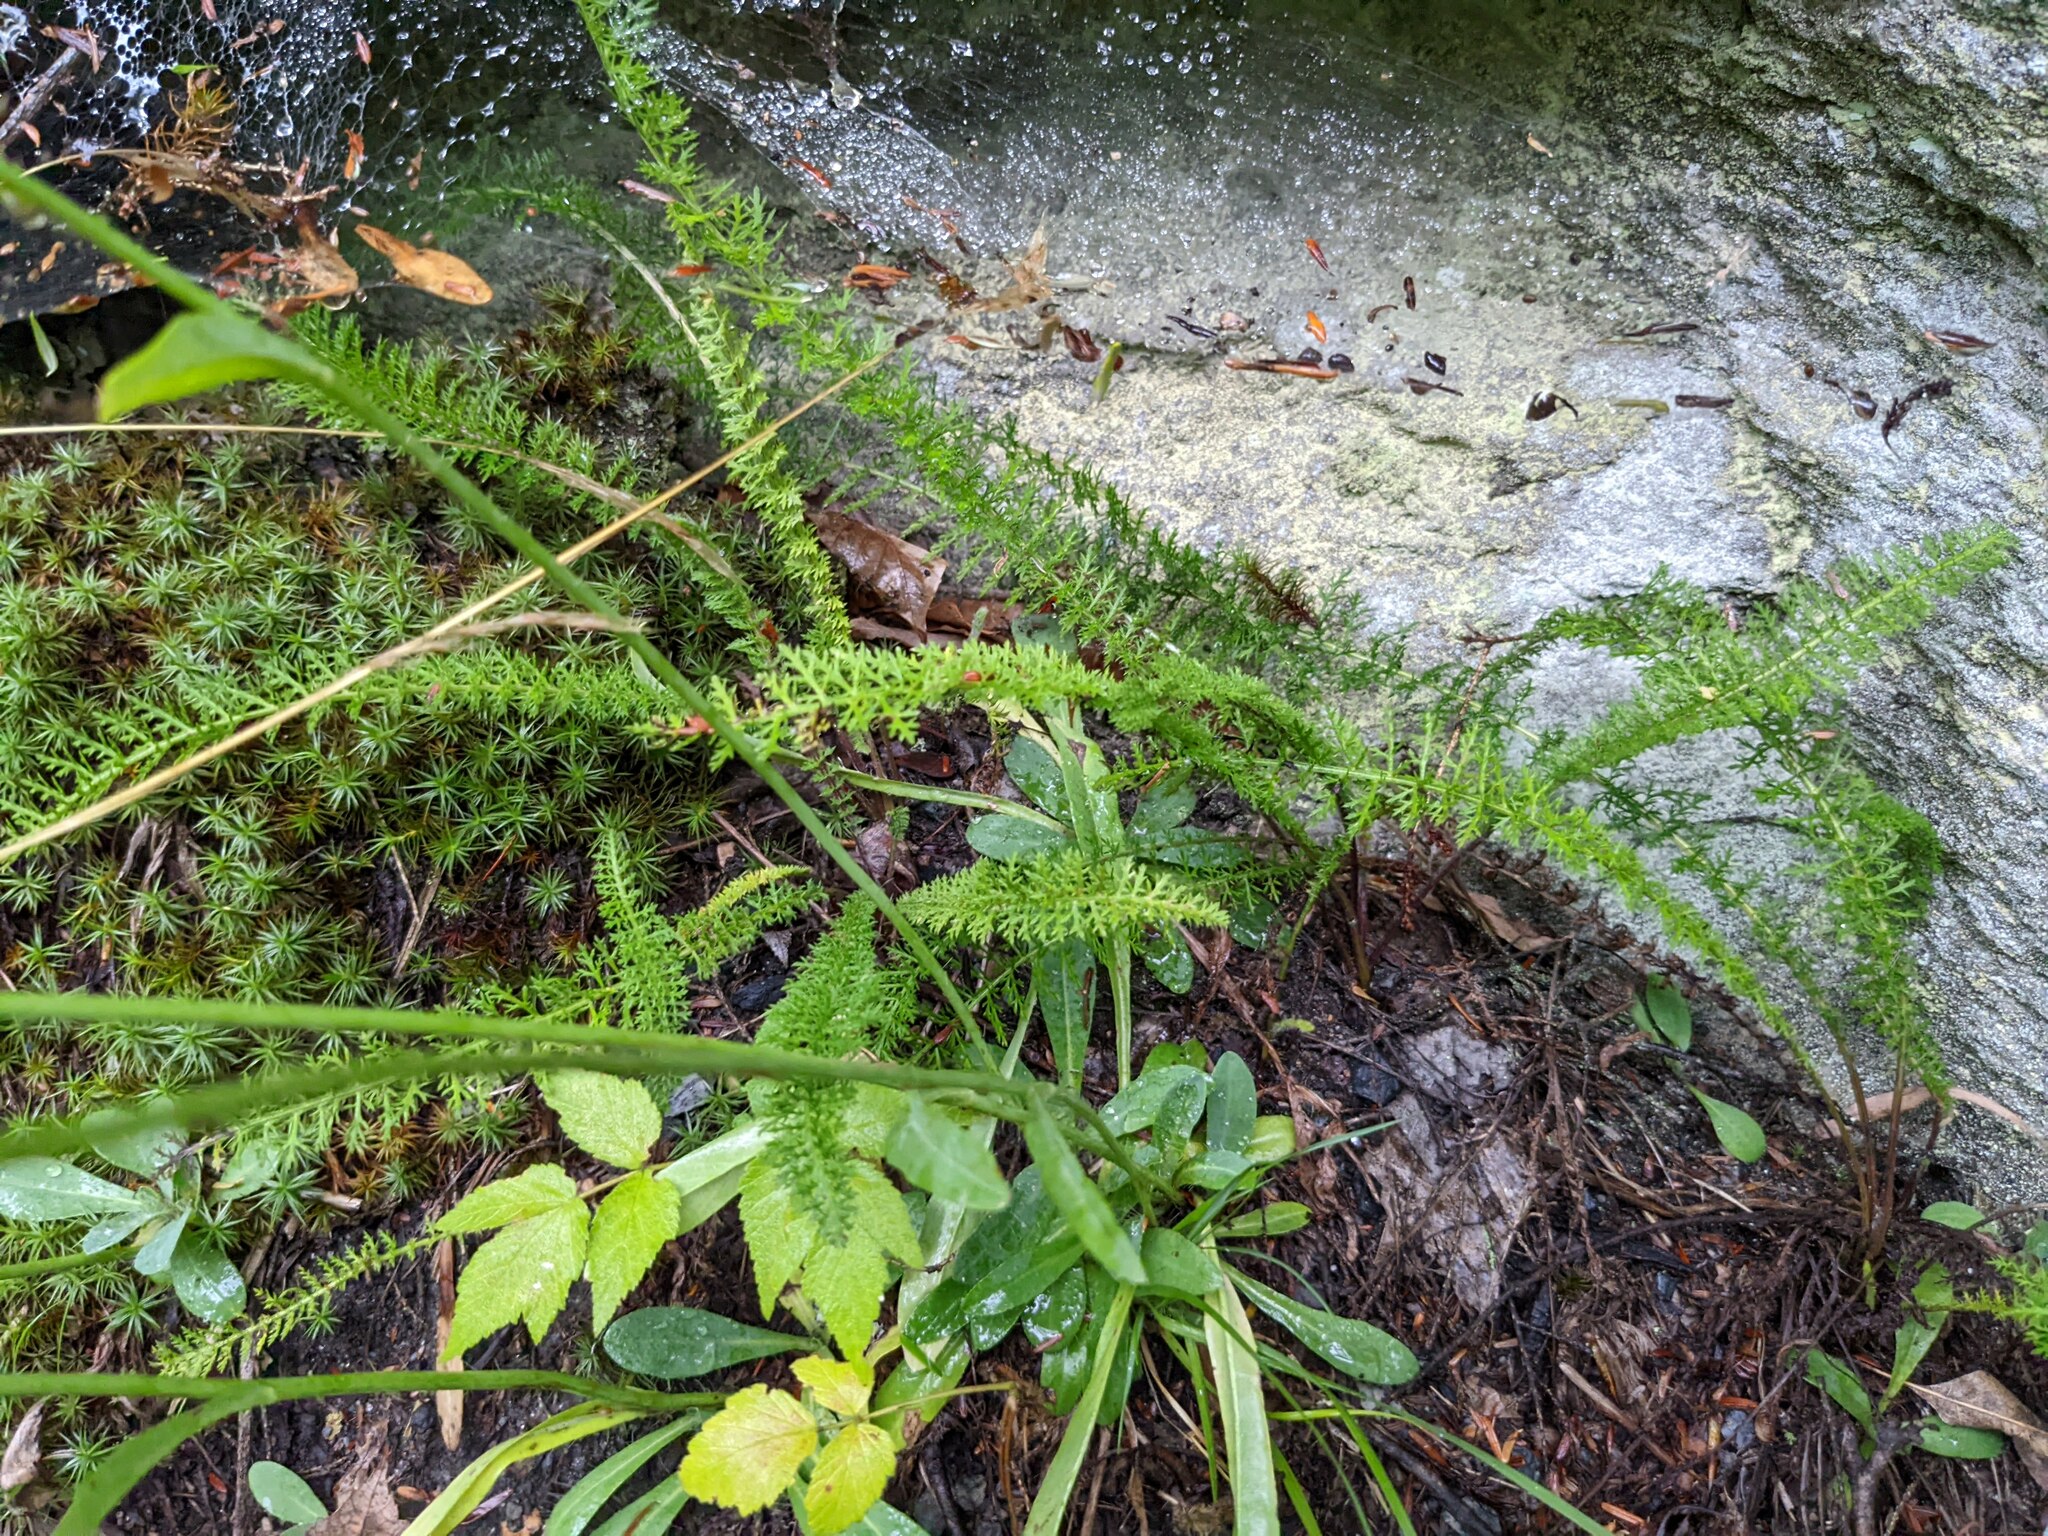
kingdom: Plantae
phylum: Tracheophyta
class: Magnoliopsida
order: Asterales
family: Asteraceae
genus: Achillea
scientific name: Achillea millefolium
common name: Yarrow
